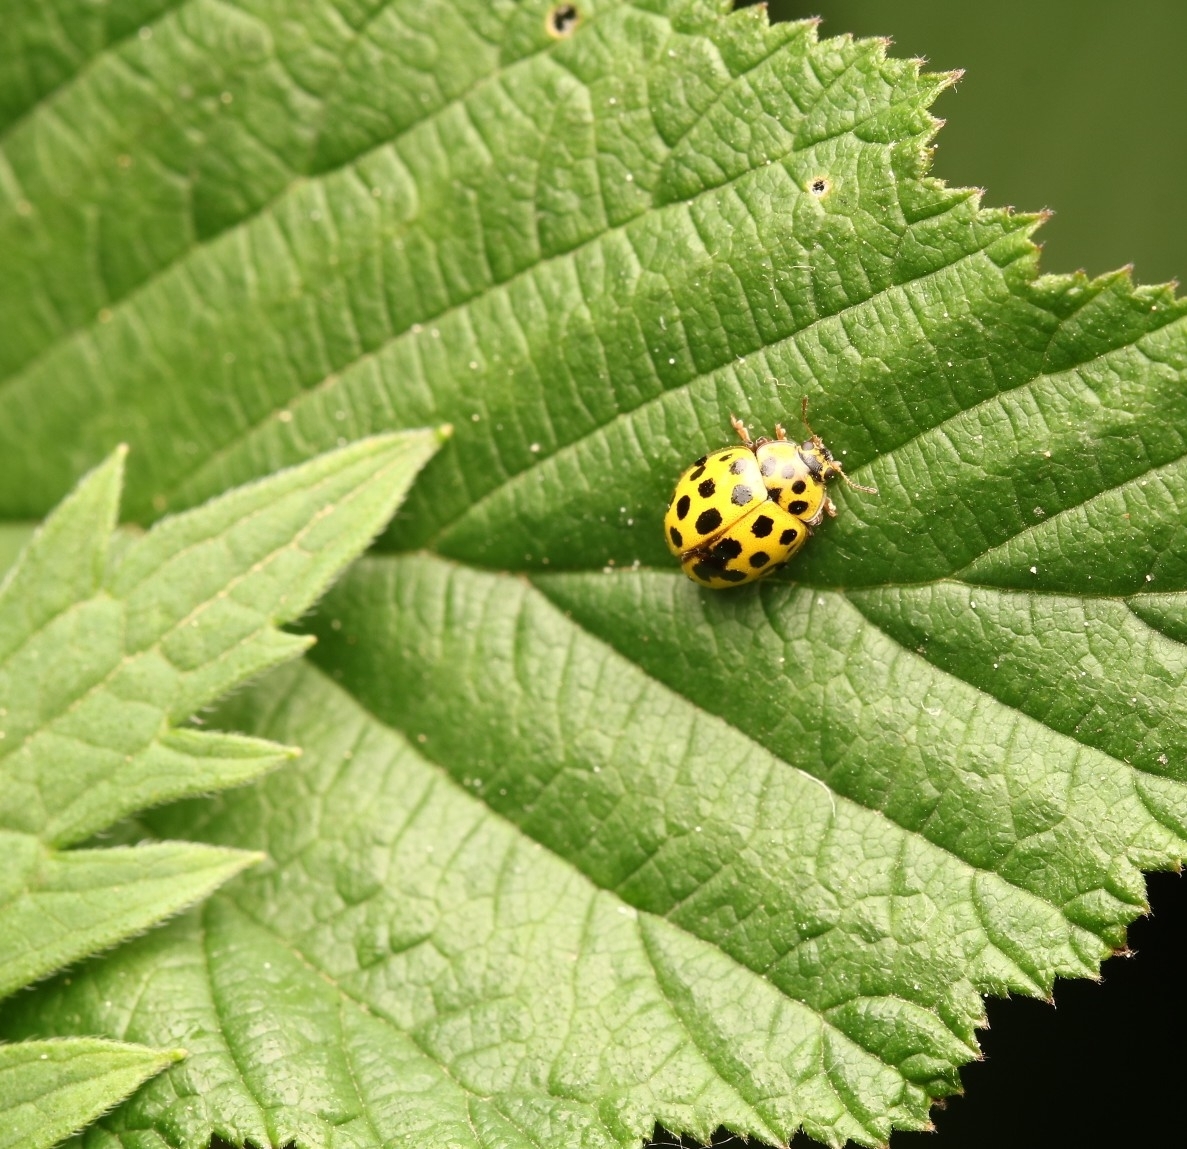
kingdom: Animalia
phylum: Arthropoda
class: Insecta
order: Coleoptera
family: Coccinellidae
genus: Psyllobora
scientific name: Psyllobora vigintiduopunctata
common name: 22-spot ladybird
